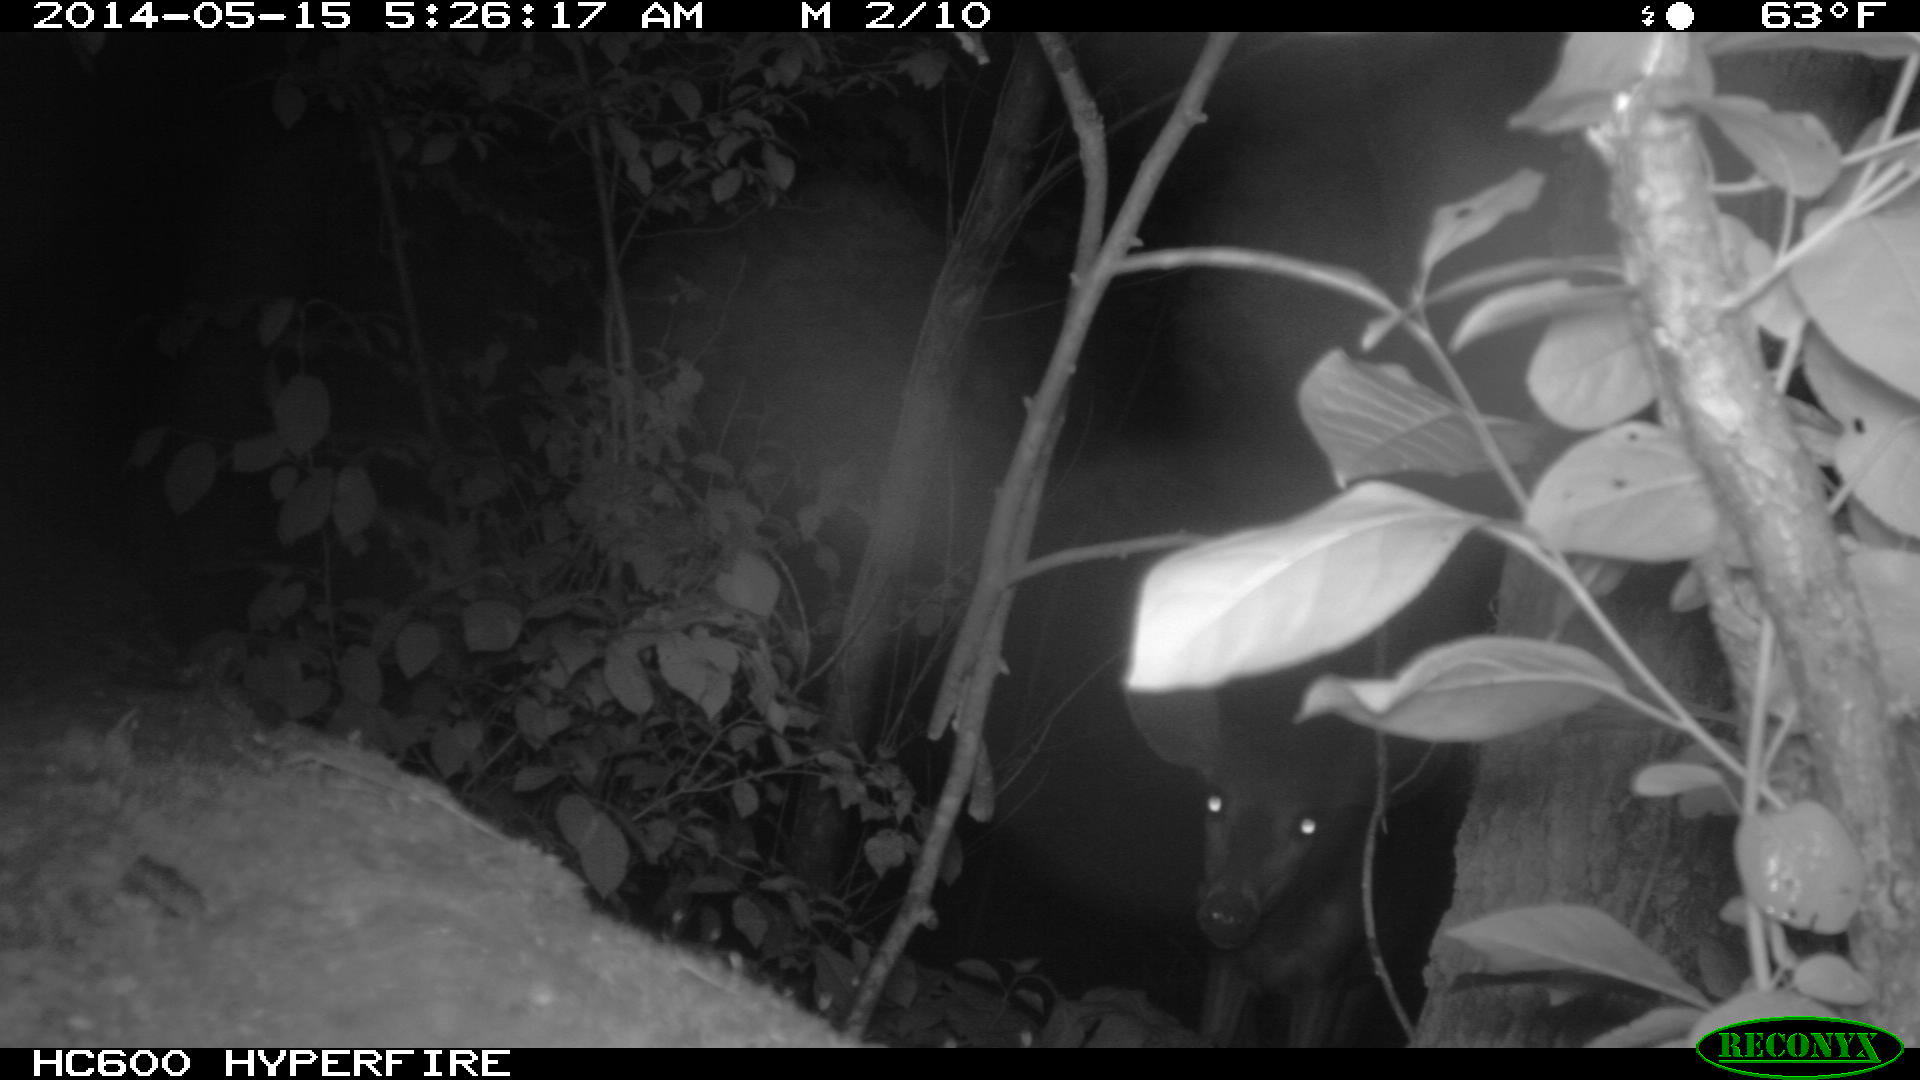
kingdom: Animalia
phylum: Chordata
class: Mammalia
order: Artiodactyla
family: Cervidae
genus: Odocoileus
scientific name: Odocoileus virginianus
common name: White-tailed deer
